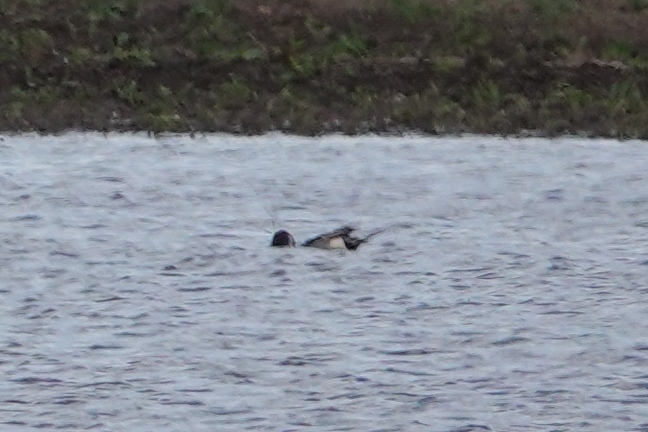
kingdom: Animalia
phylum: Chordata
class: Aves
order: Anseriformes
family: Anatidae
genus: Anas
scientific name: Anas acuta
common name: Northern pintail
